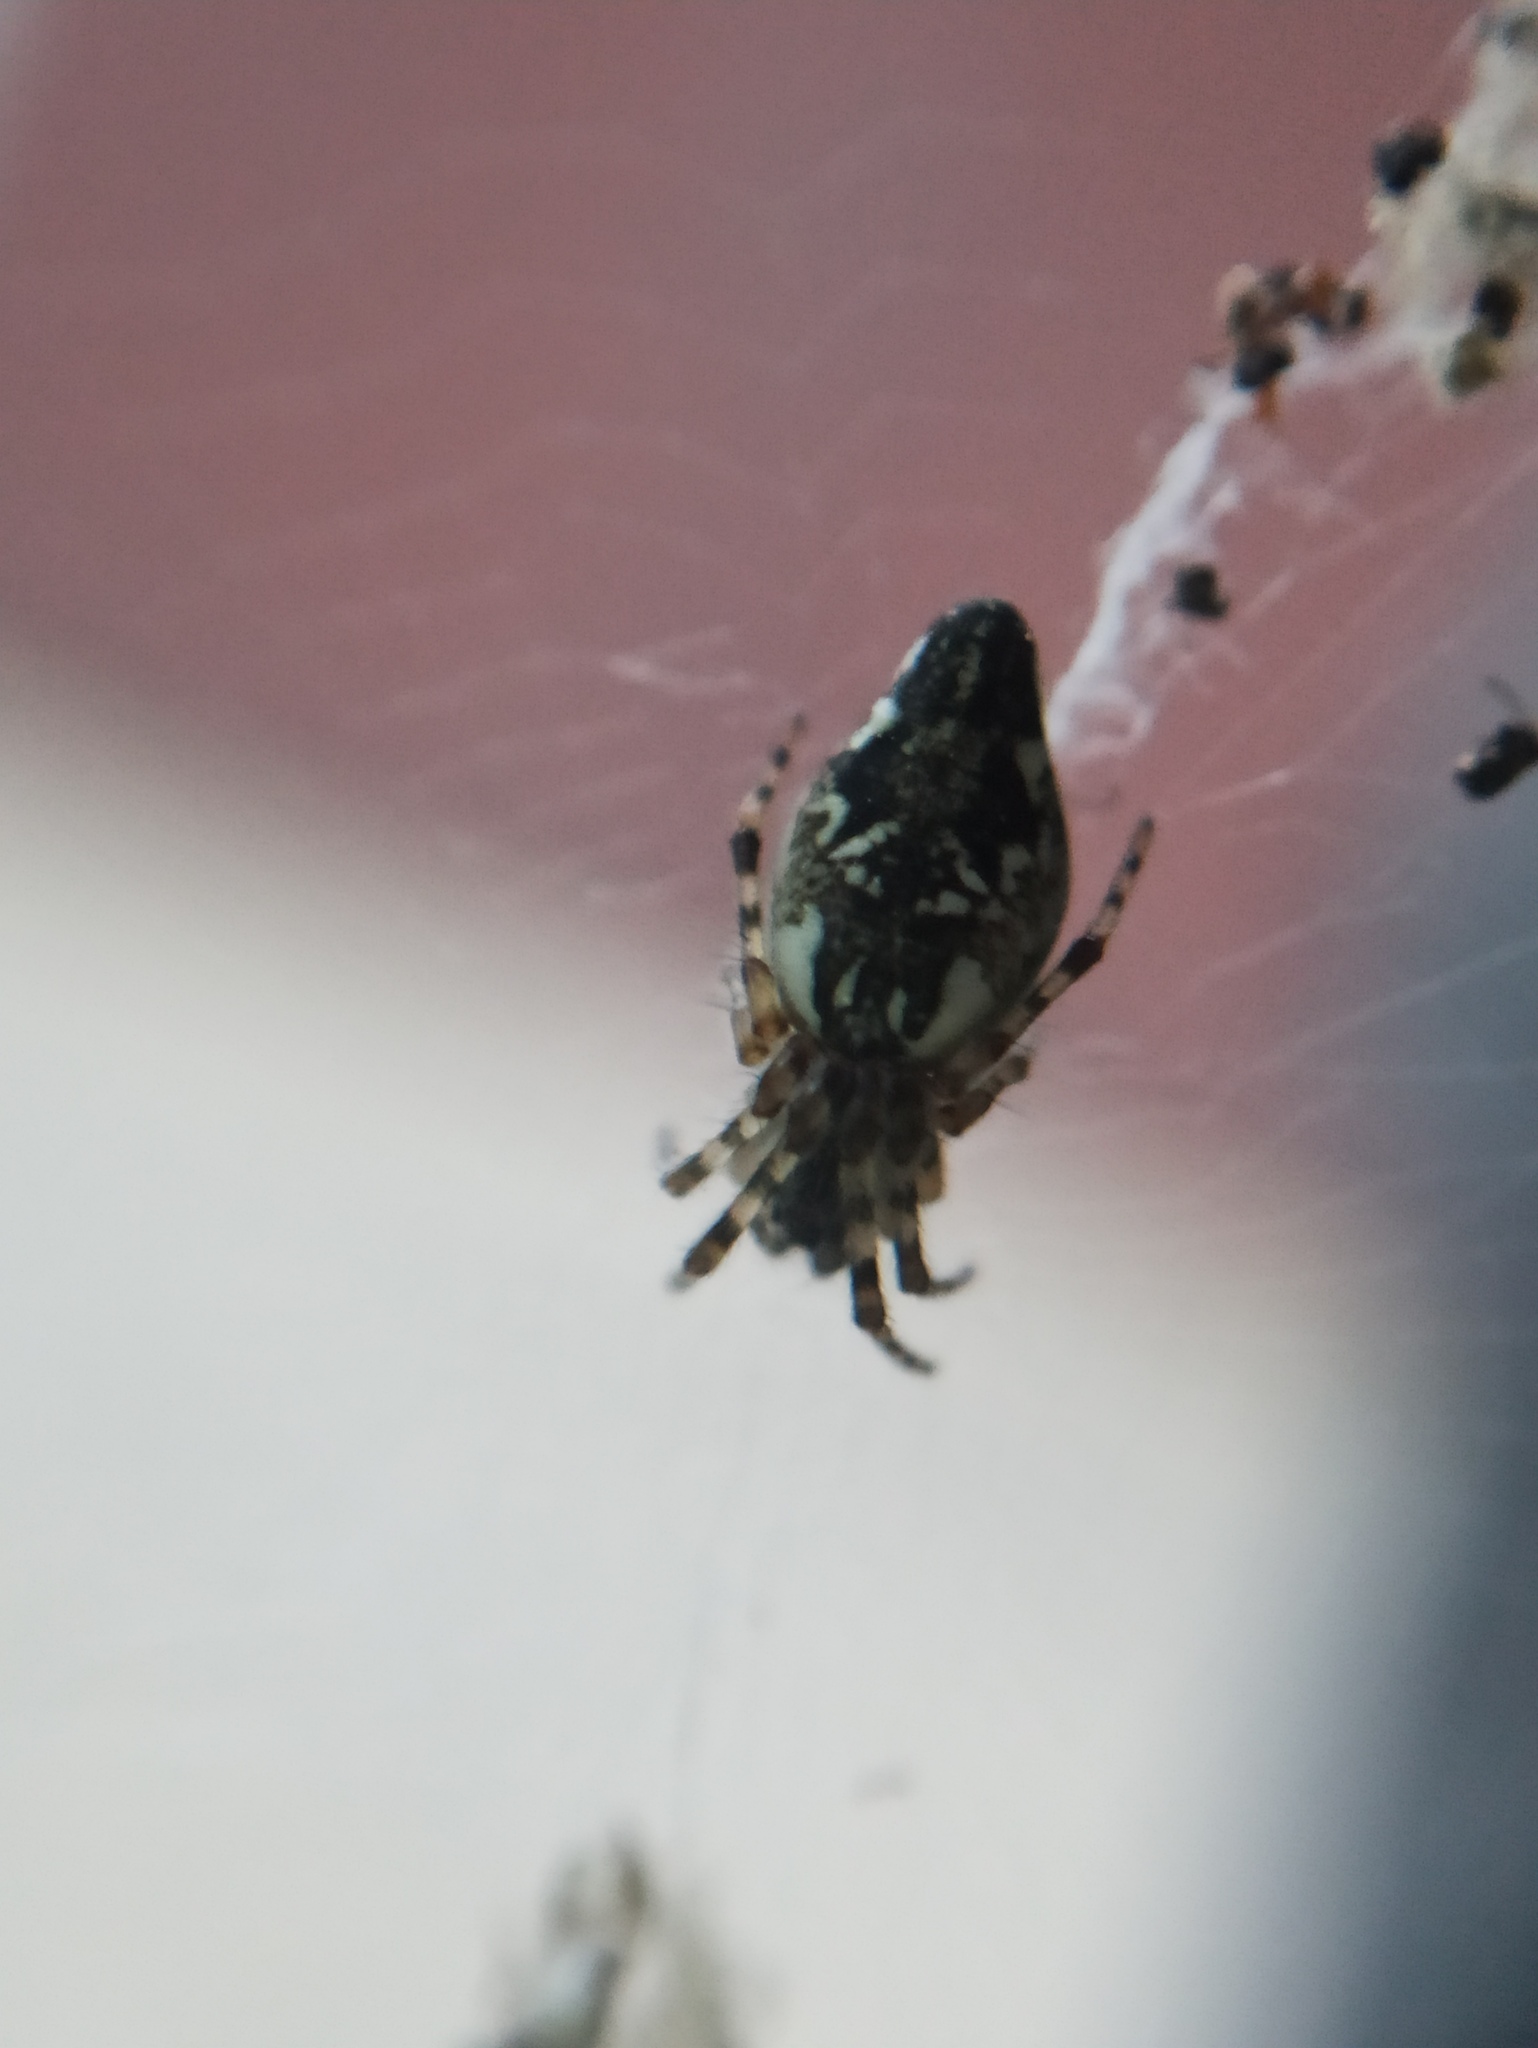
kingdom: Animalia
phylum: Arthropoda
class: Arachnida
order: Araneae
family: Araneidae
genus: Cyclosa
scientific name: Cyclosa conica
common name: Conical trashline orbweaver
